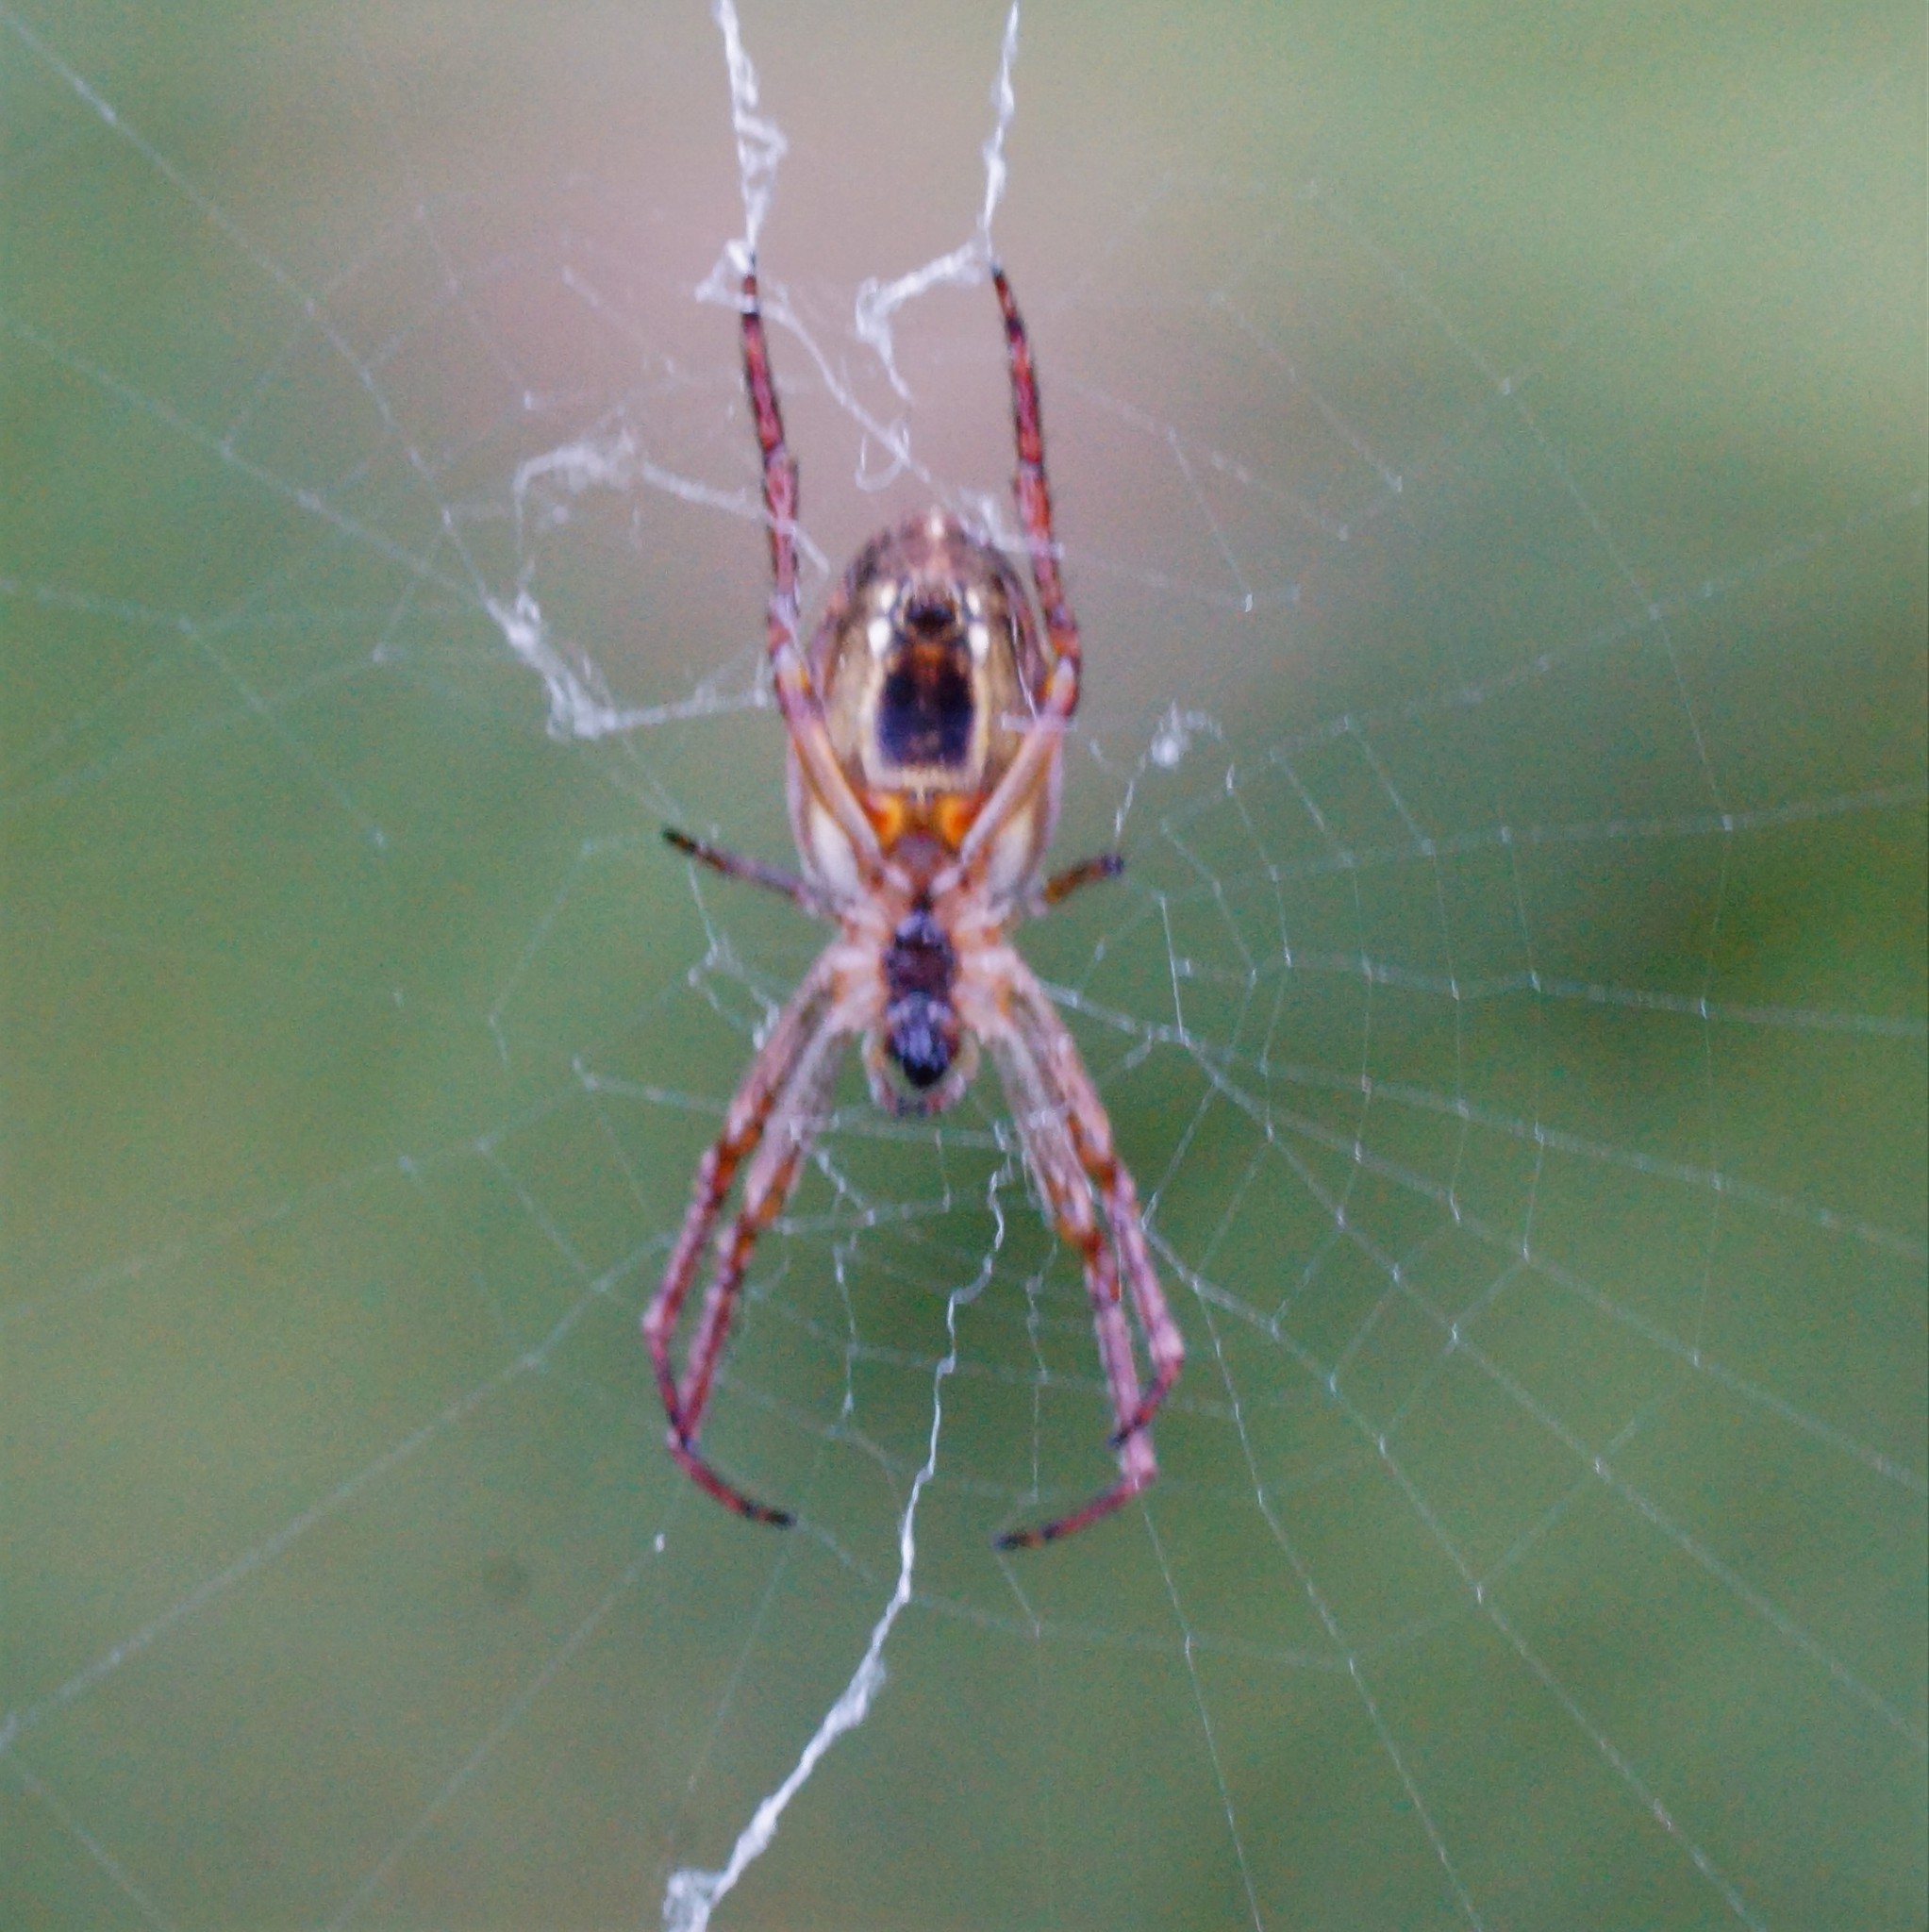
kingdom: Animalia
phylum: Arthropoda
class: Arachnida
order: Araneae
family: Araneidae
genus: Plebs
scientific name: Plebs eburnus
